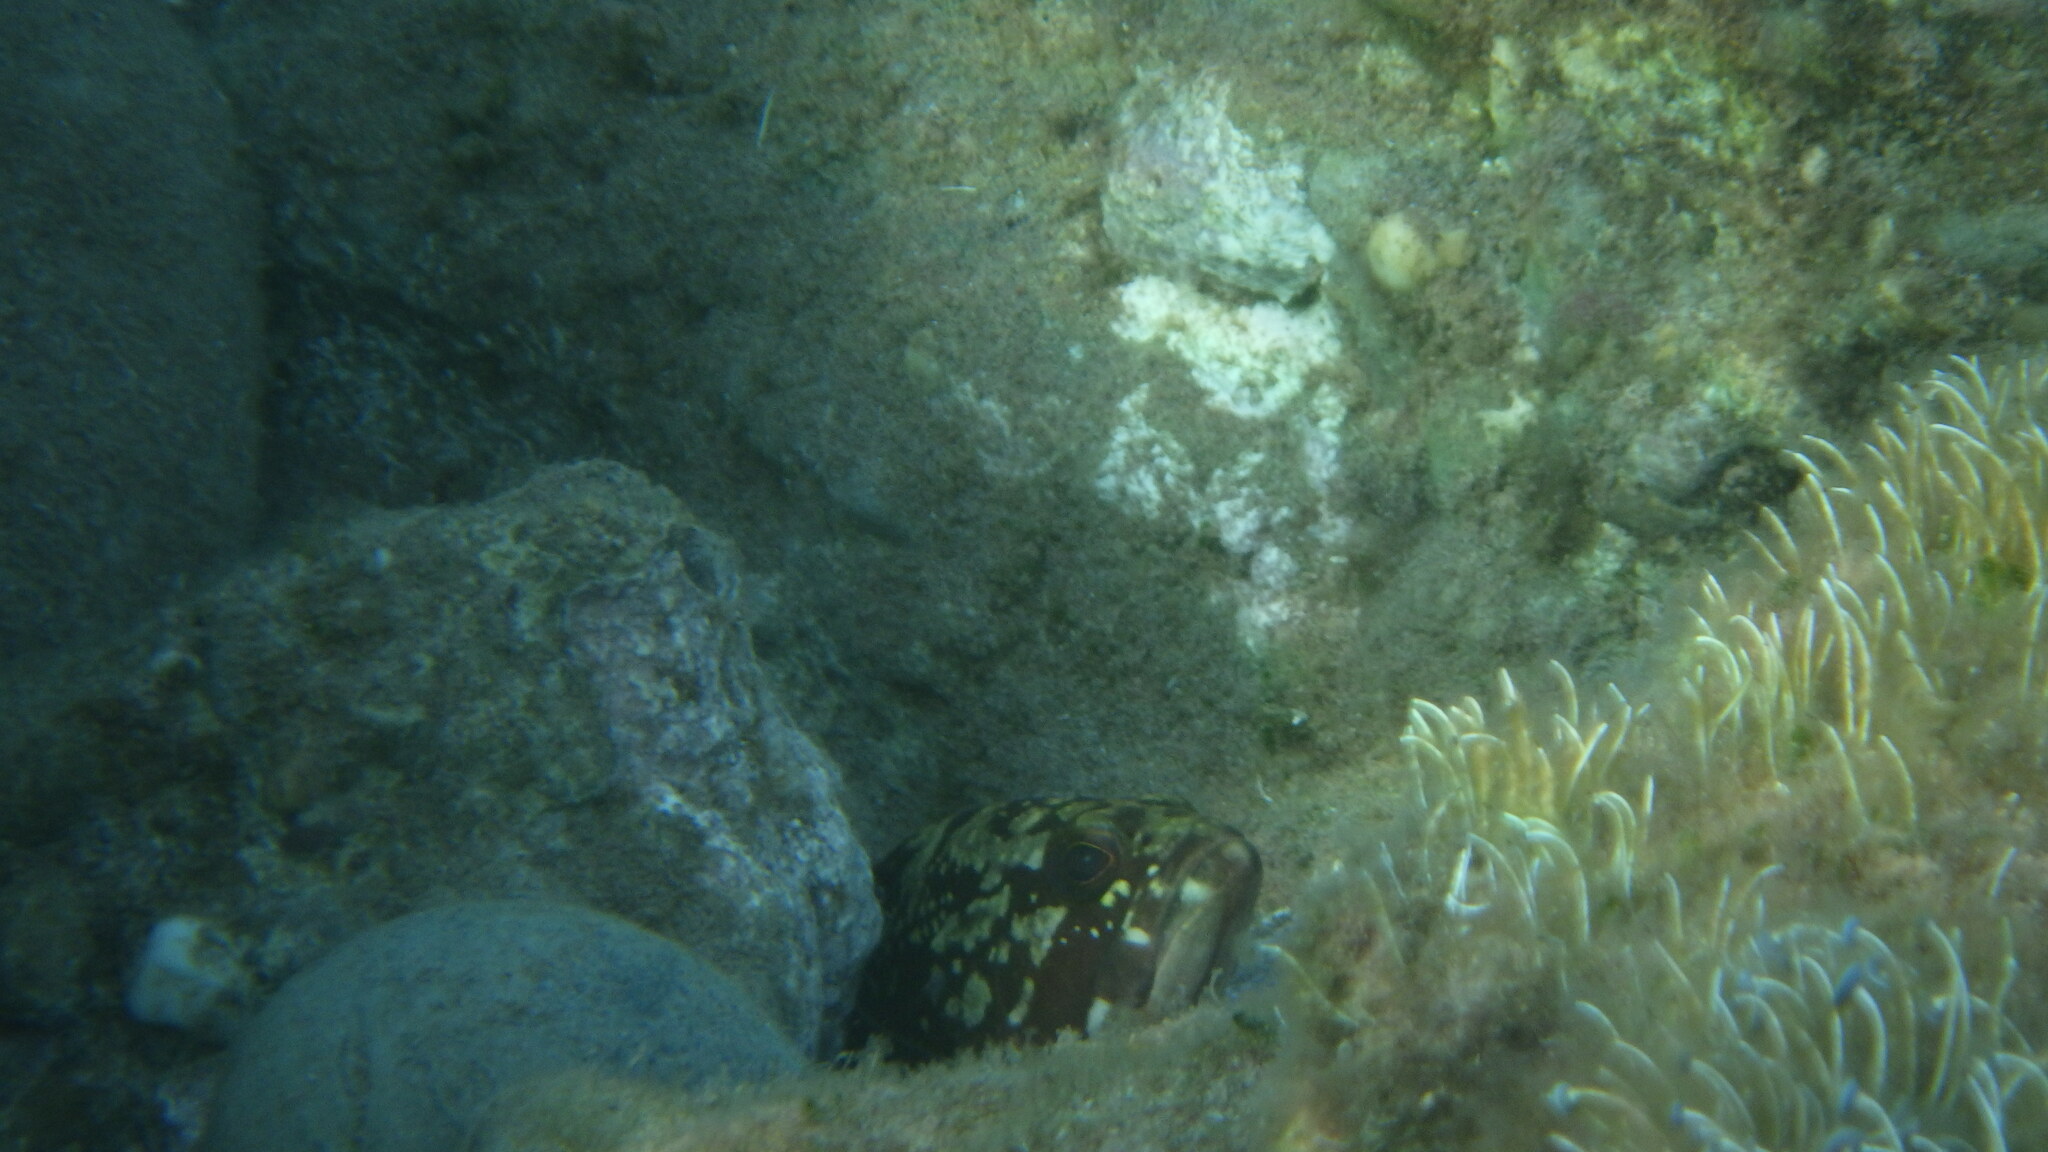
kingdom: Animalia
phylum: Chordata
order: Perciformes
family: Serranidae
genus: Epinephelus
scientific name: Epinephelus marginatus
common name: Dusky grouper
